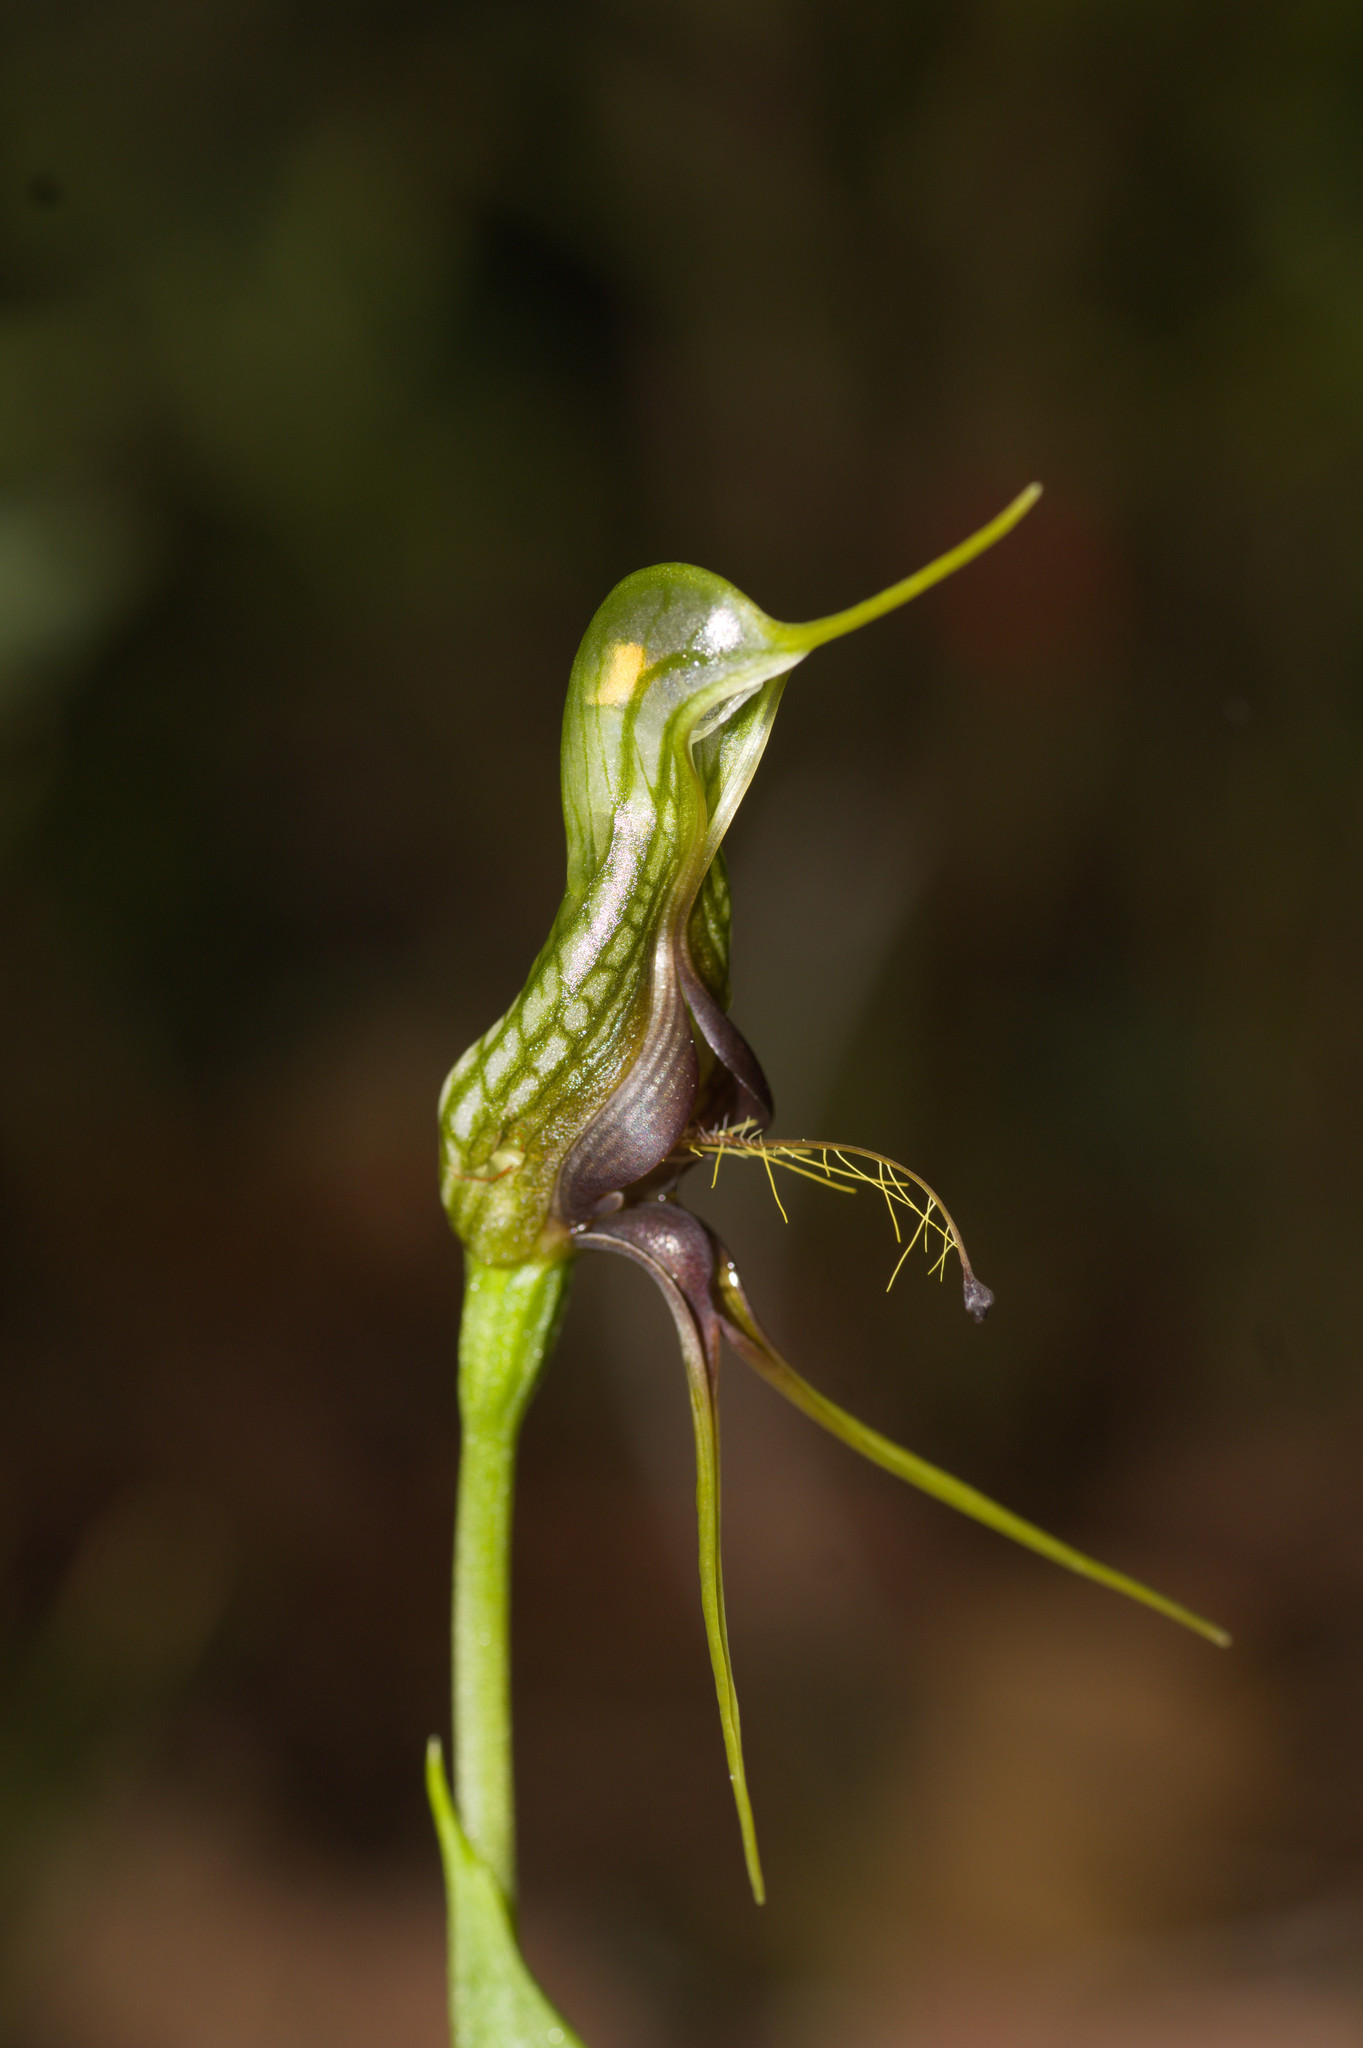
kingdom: Plantae
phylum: Tracheophyta
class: Liliopsida
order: Asparagales
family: Orchidaceae
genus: Pterostylis
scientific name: Pterostylis barbata
